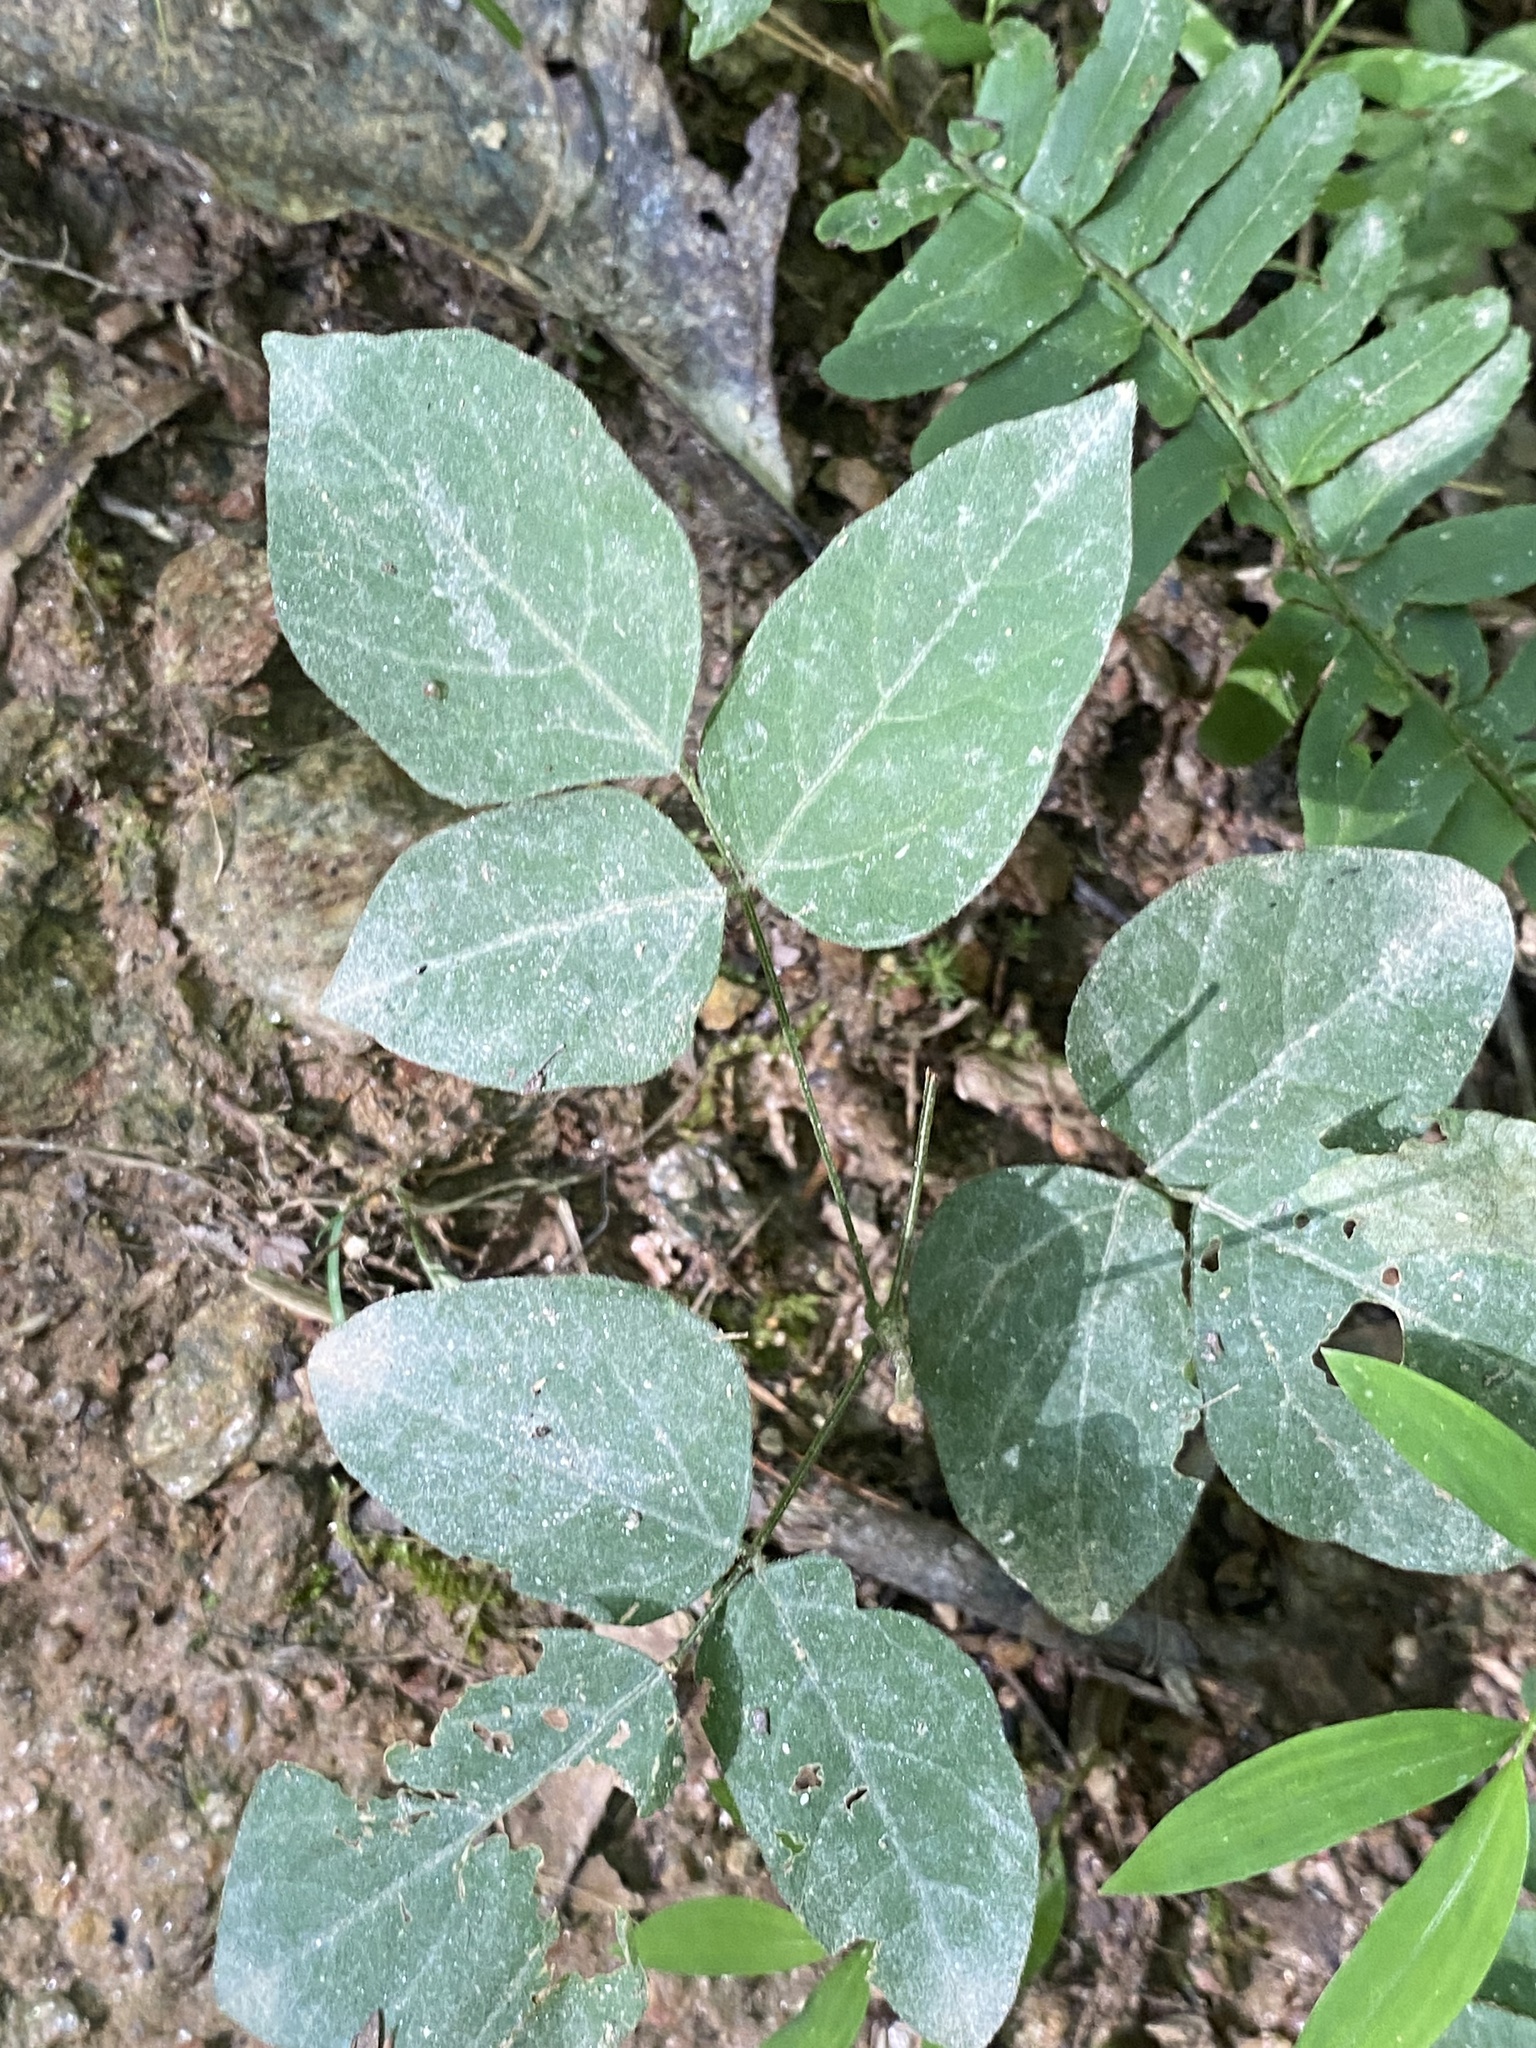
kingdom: Plantae
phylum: Tracheophyta
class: Magnoliopsida
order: Fabales
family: Fabaceae
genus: Hylodesmum
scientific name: Hylodesmum nudiflorum
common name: Bare-stemmed tick-trefoil
